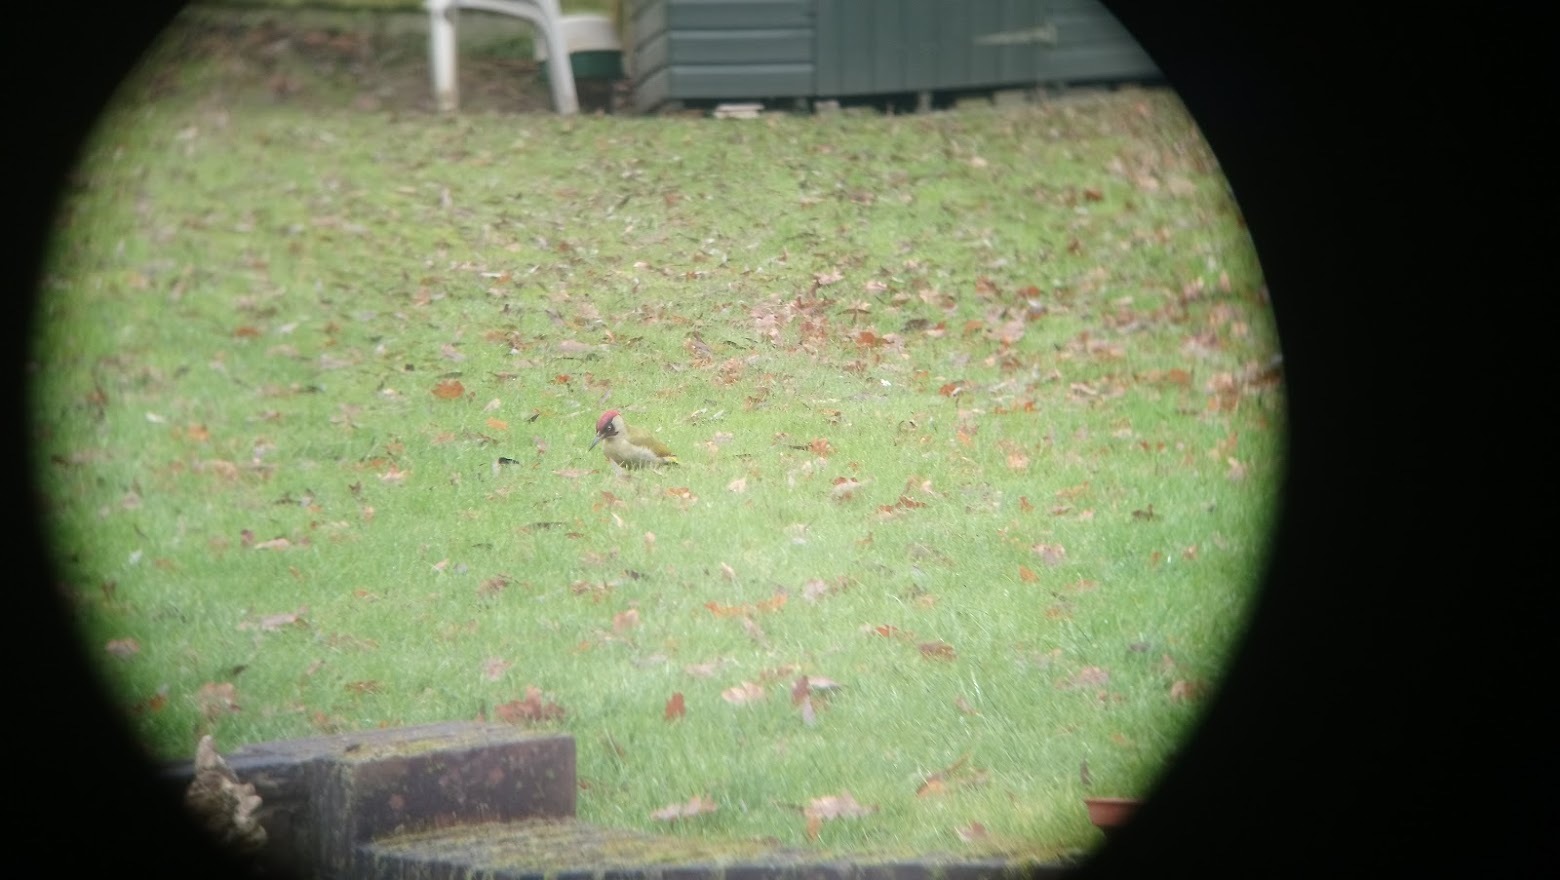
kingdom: Animalia
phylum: Chordata
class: Aves
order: Piciformes
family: Picidae
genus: Picus
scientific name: Picus viridis
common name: European green woodpecker
